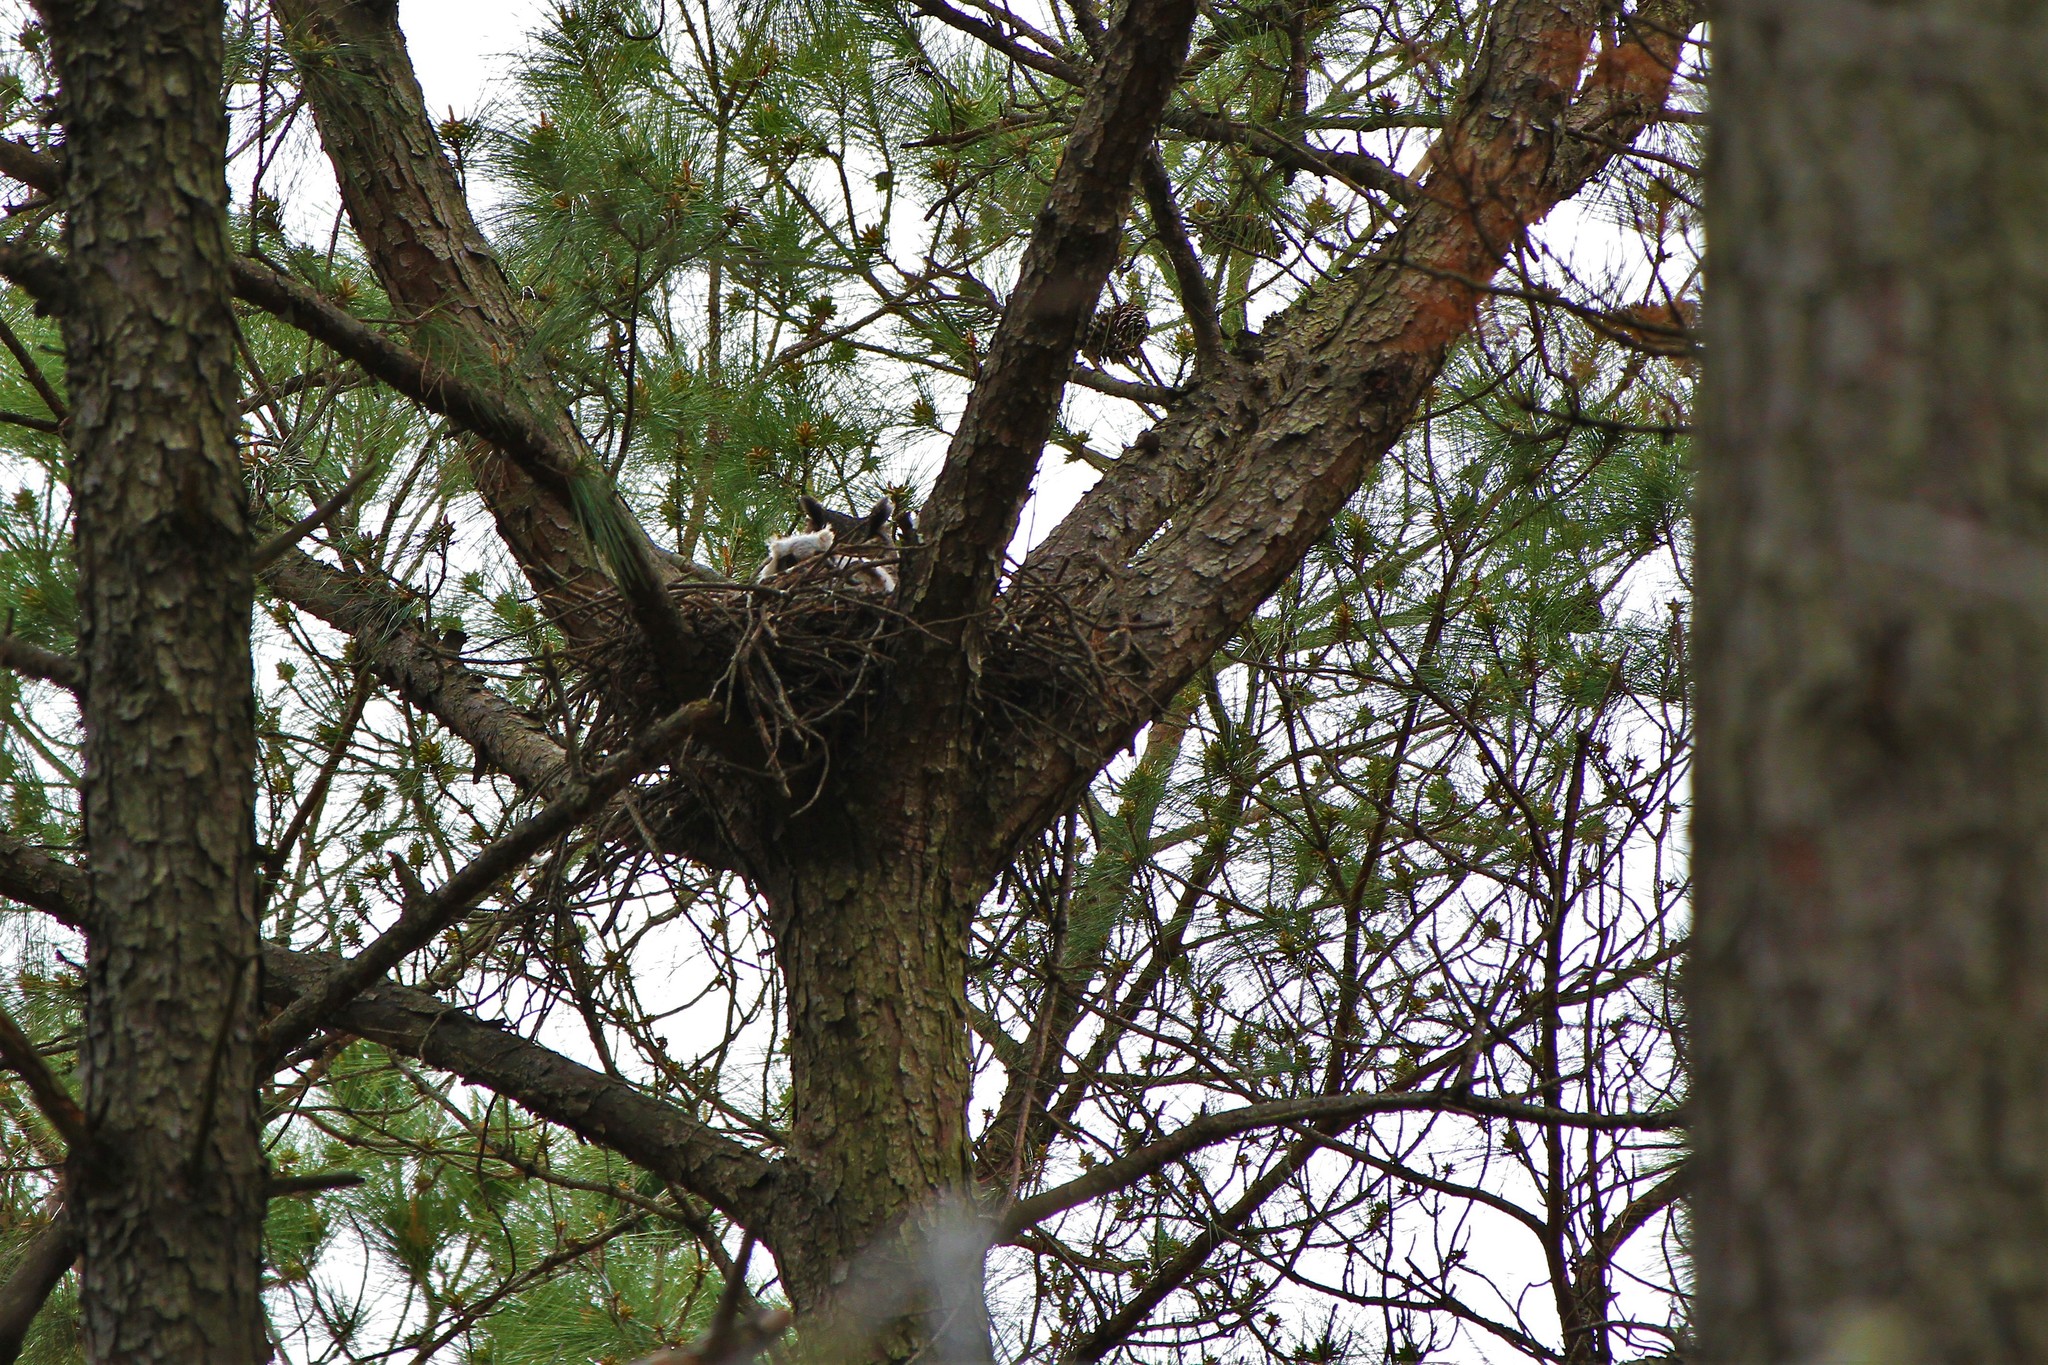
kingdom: Animalia
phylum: Chordata
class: Aves
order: Strigiformes
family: Strigidae
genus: Bubo
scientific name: Bubo virginianus
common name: Great horned owl
